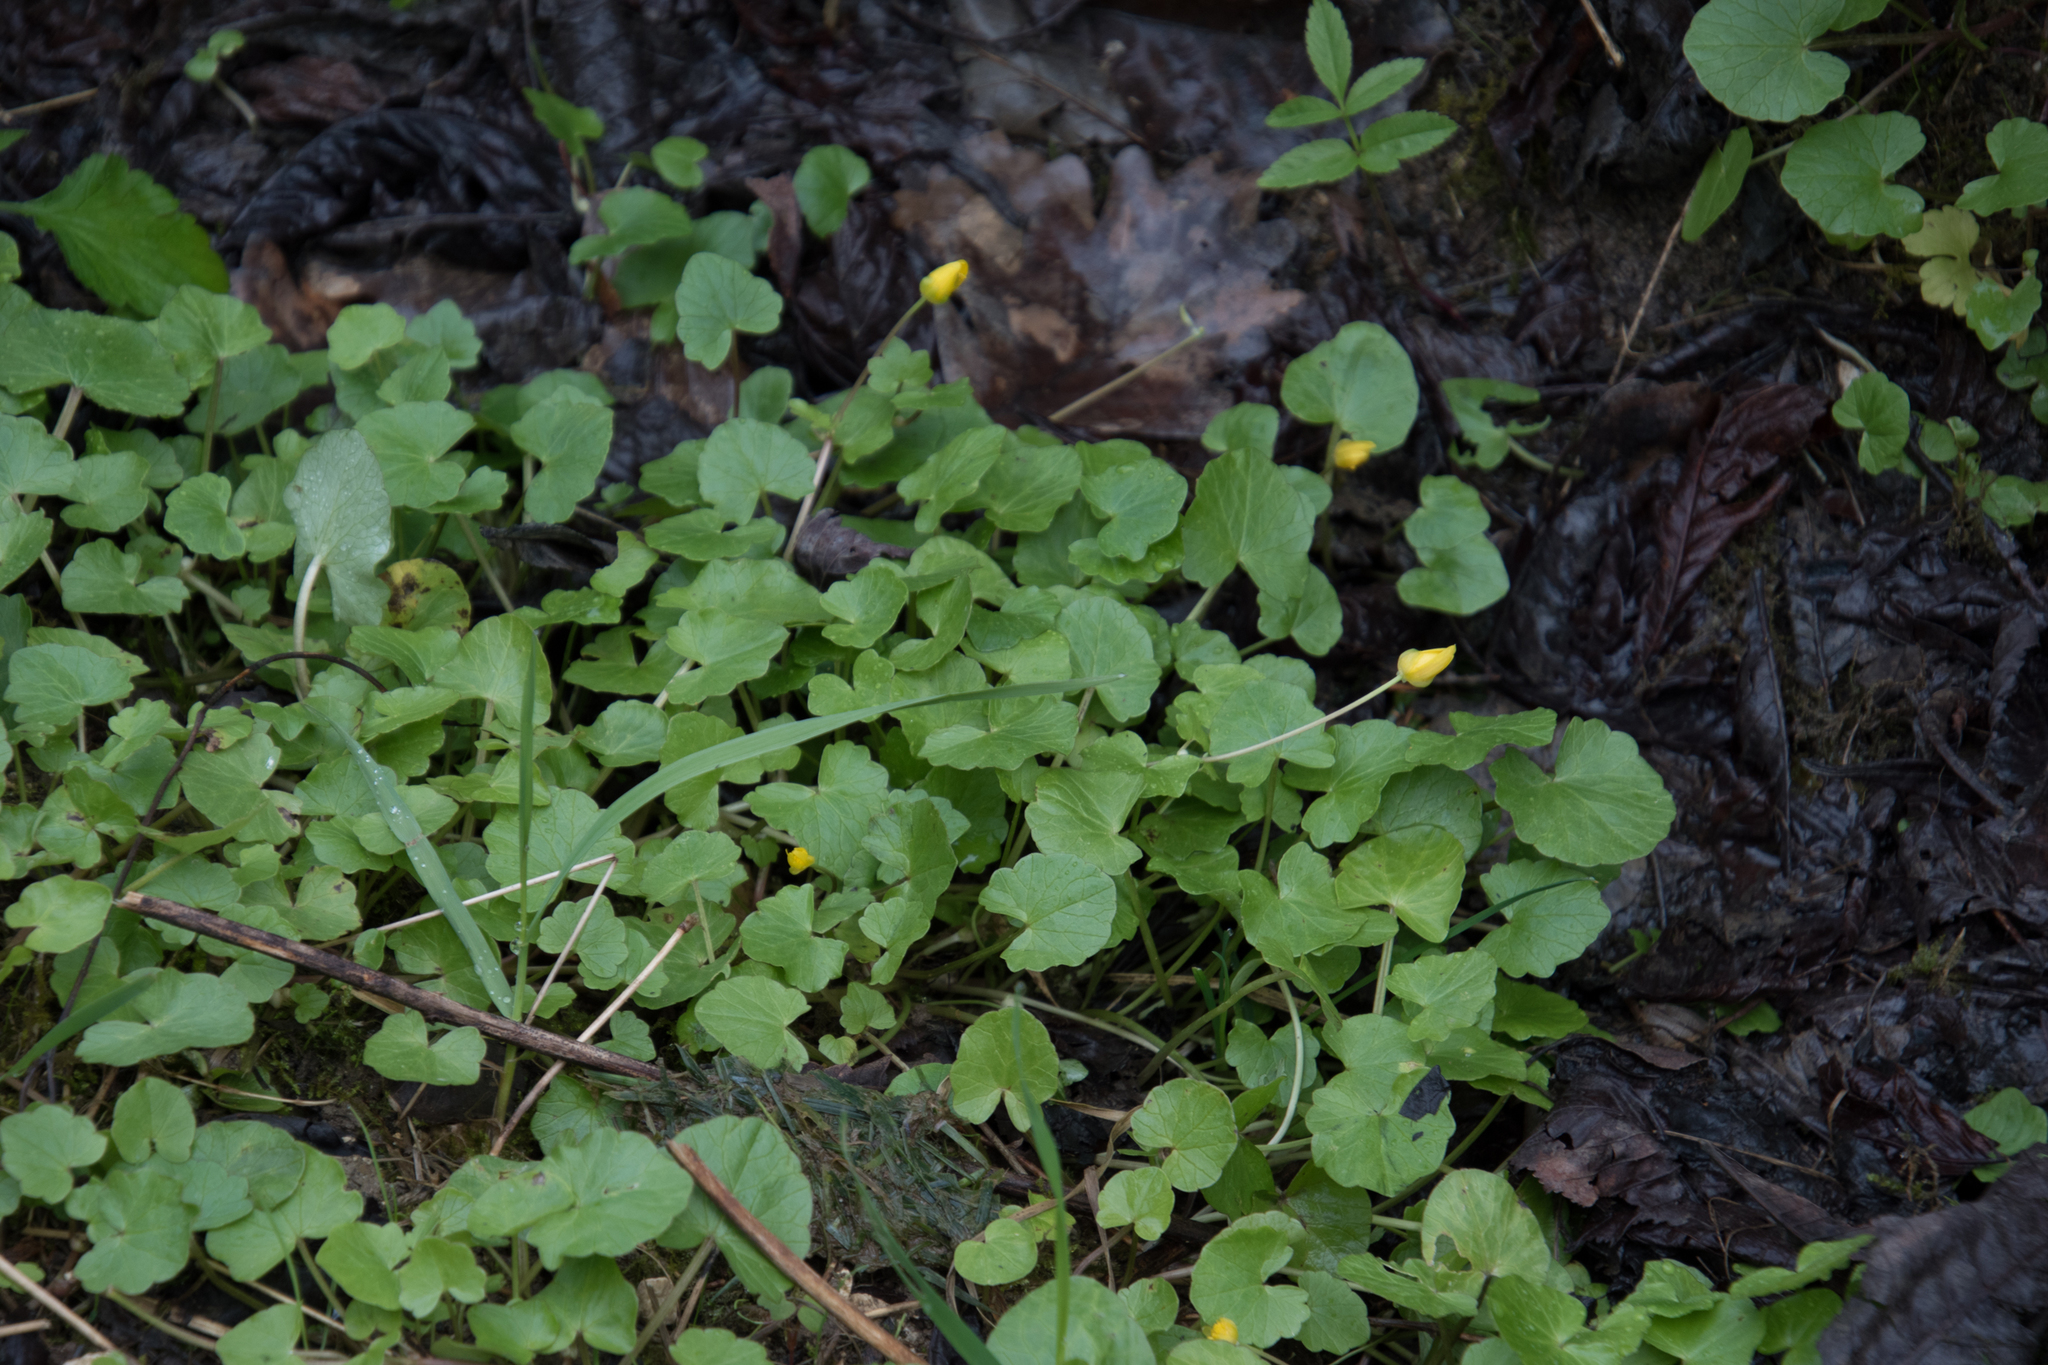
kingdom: Plantae
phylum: Tracheophyta
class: Magnoliopsida
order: Ranunculales
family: Ranunculaceae
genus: Ficaria
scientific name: Ficaria verna
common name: Lesser celandine
